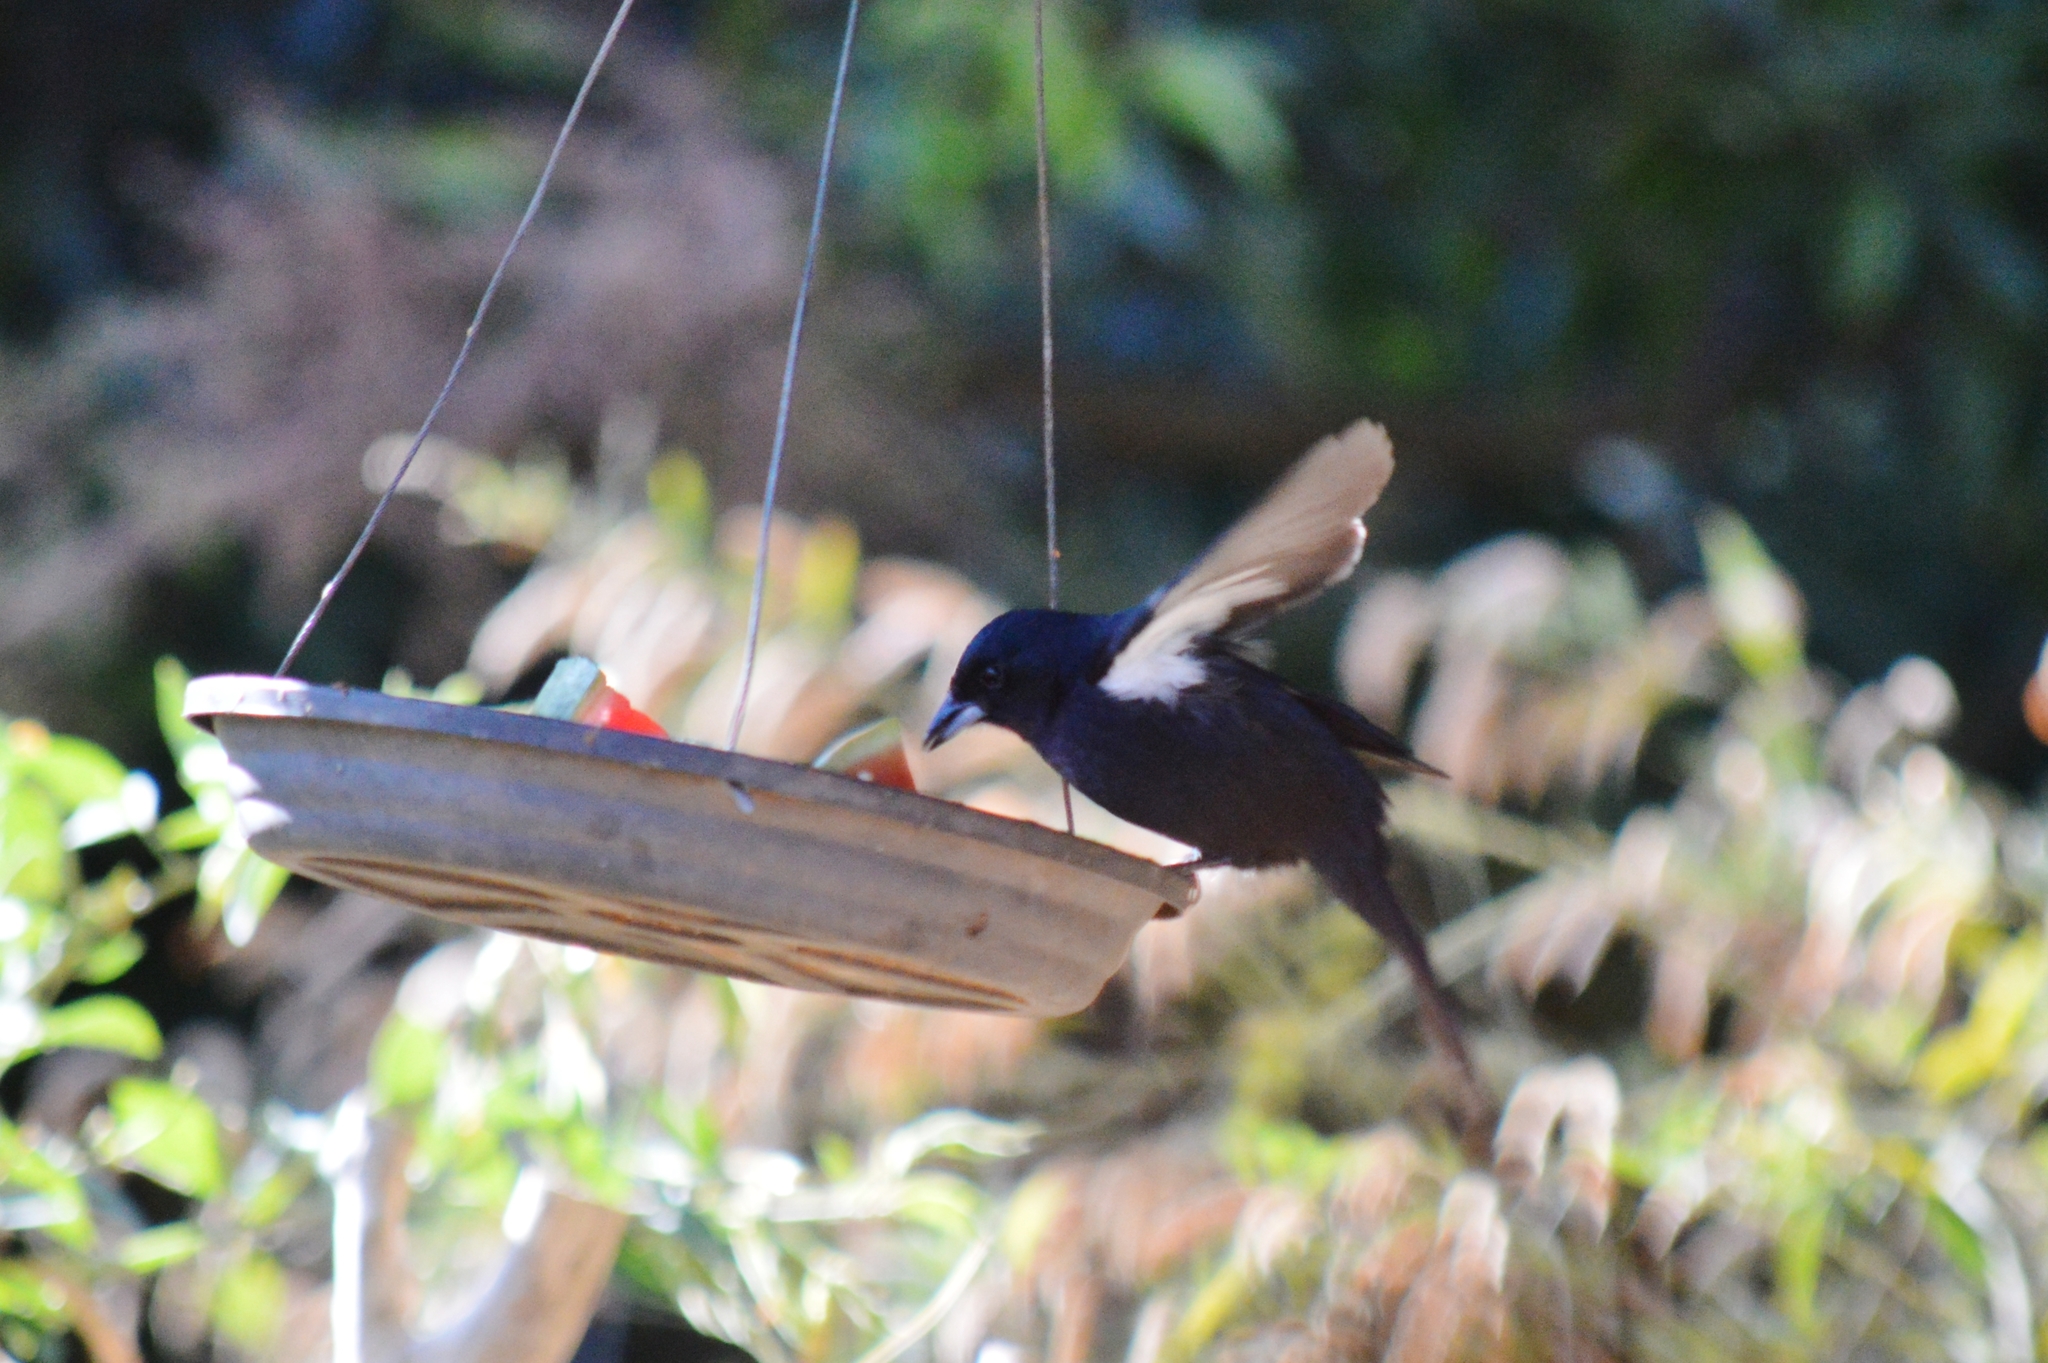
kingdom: Animalia
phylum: Chordata
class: Aves
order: Passeriformes
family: Thraupidae
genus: Tachyphonus
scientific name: Tachyphonus rufus
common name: White-lined tanager
